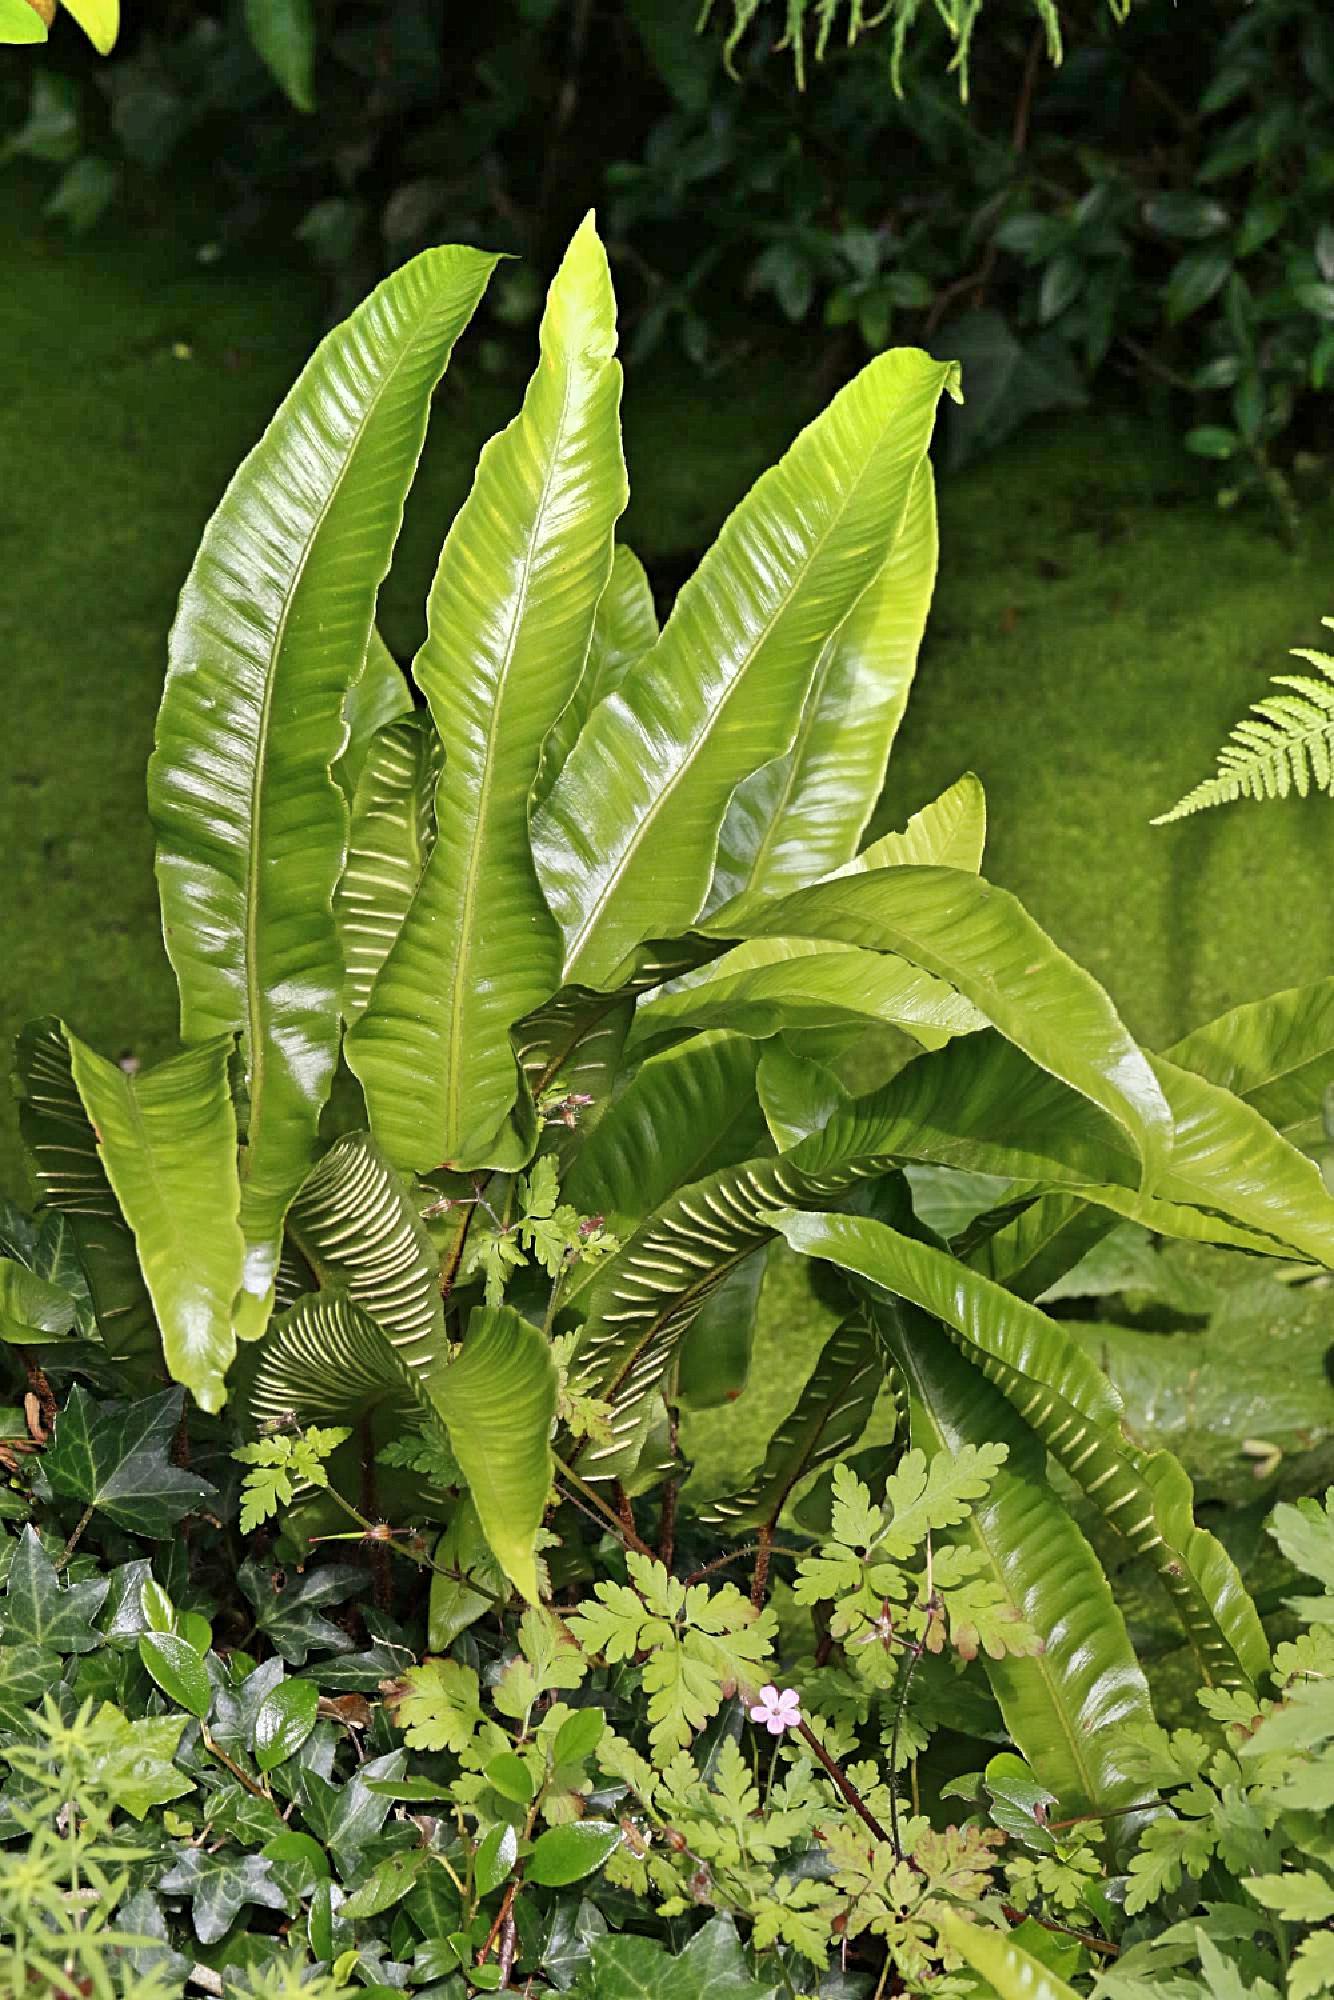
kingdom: Plantae
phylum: Tracheophyta
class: Polypodiopsida
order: Polypodiales
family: Aspleniaceae
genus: Asplenium
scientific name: Asplenium scolopendrium
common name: Hart's-tongue fern
